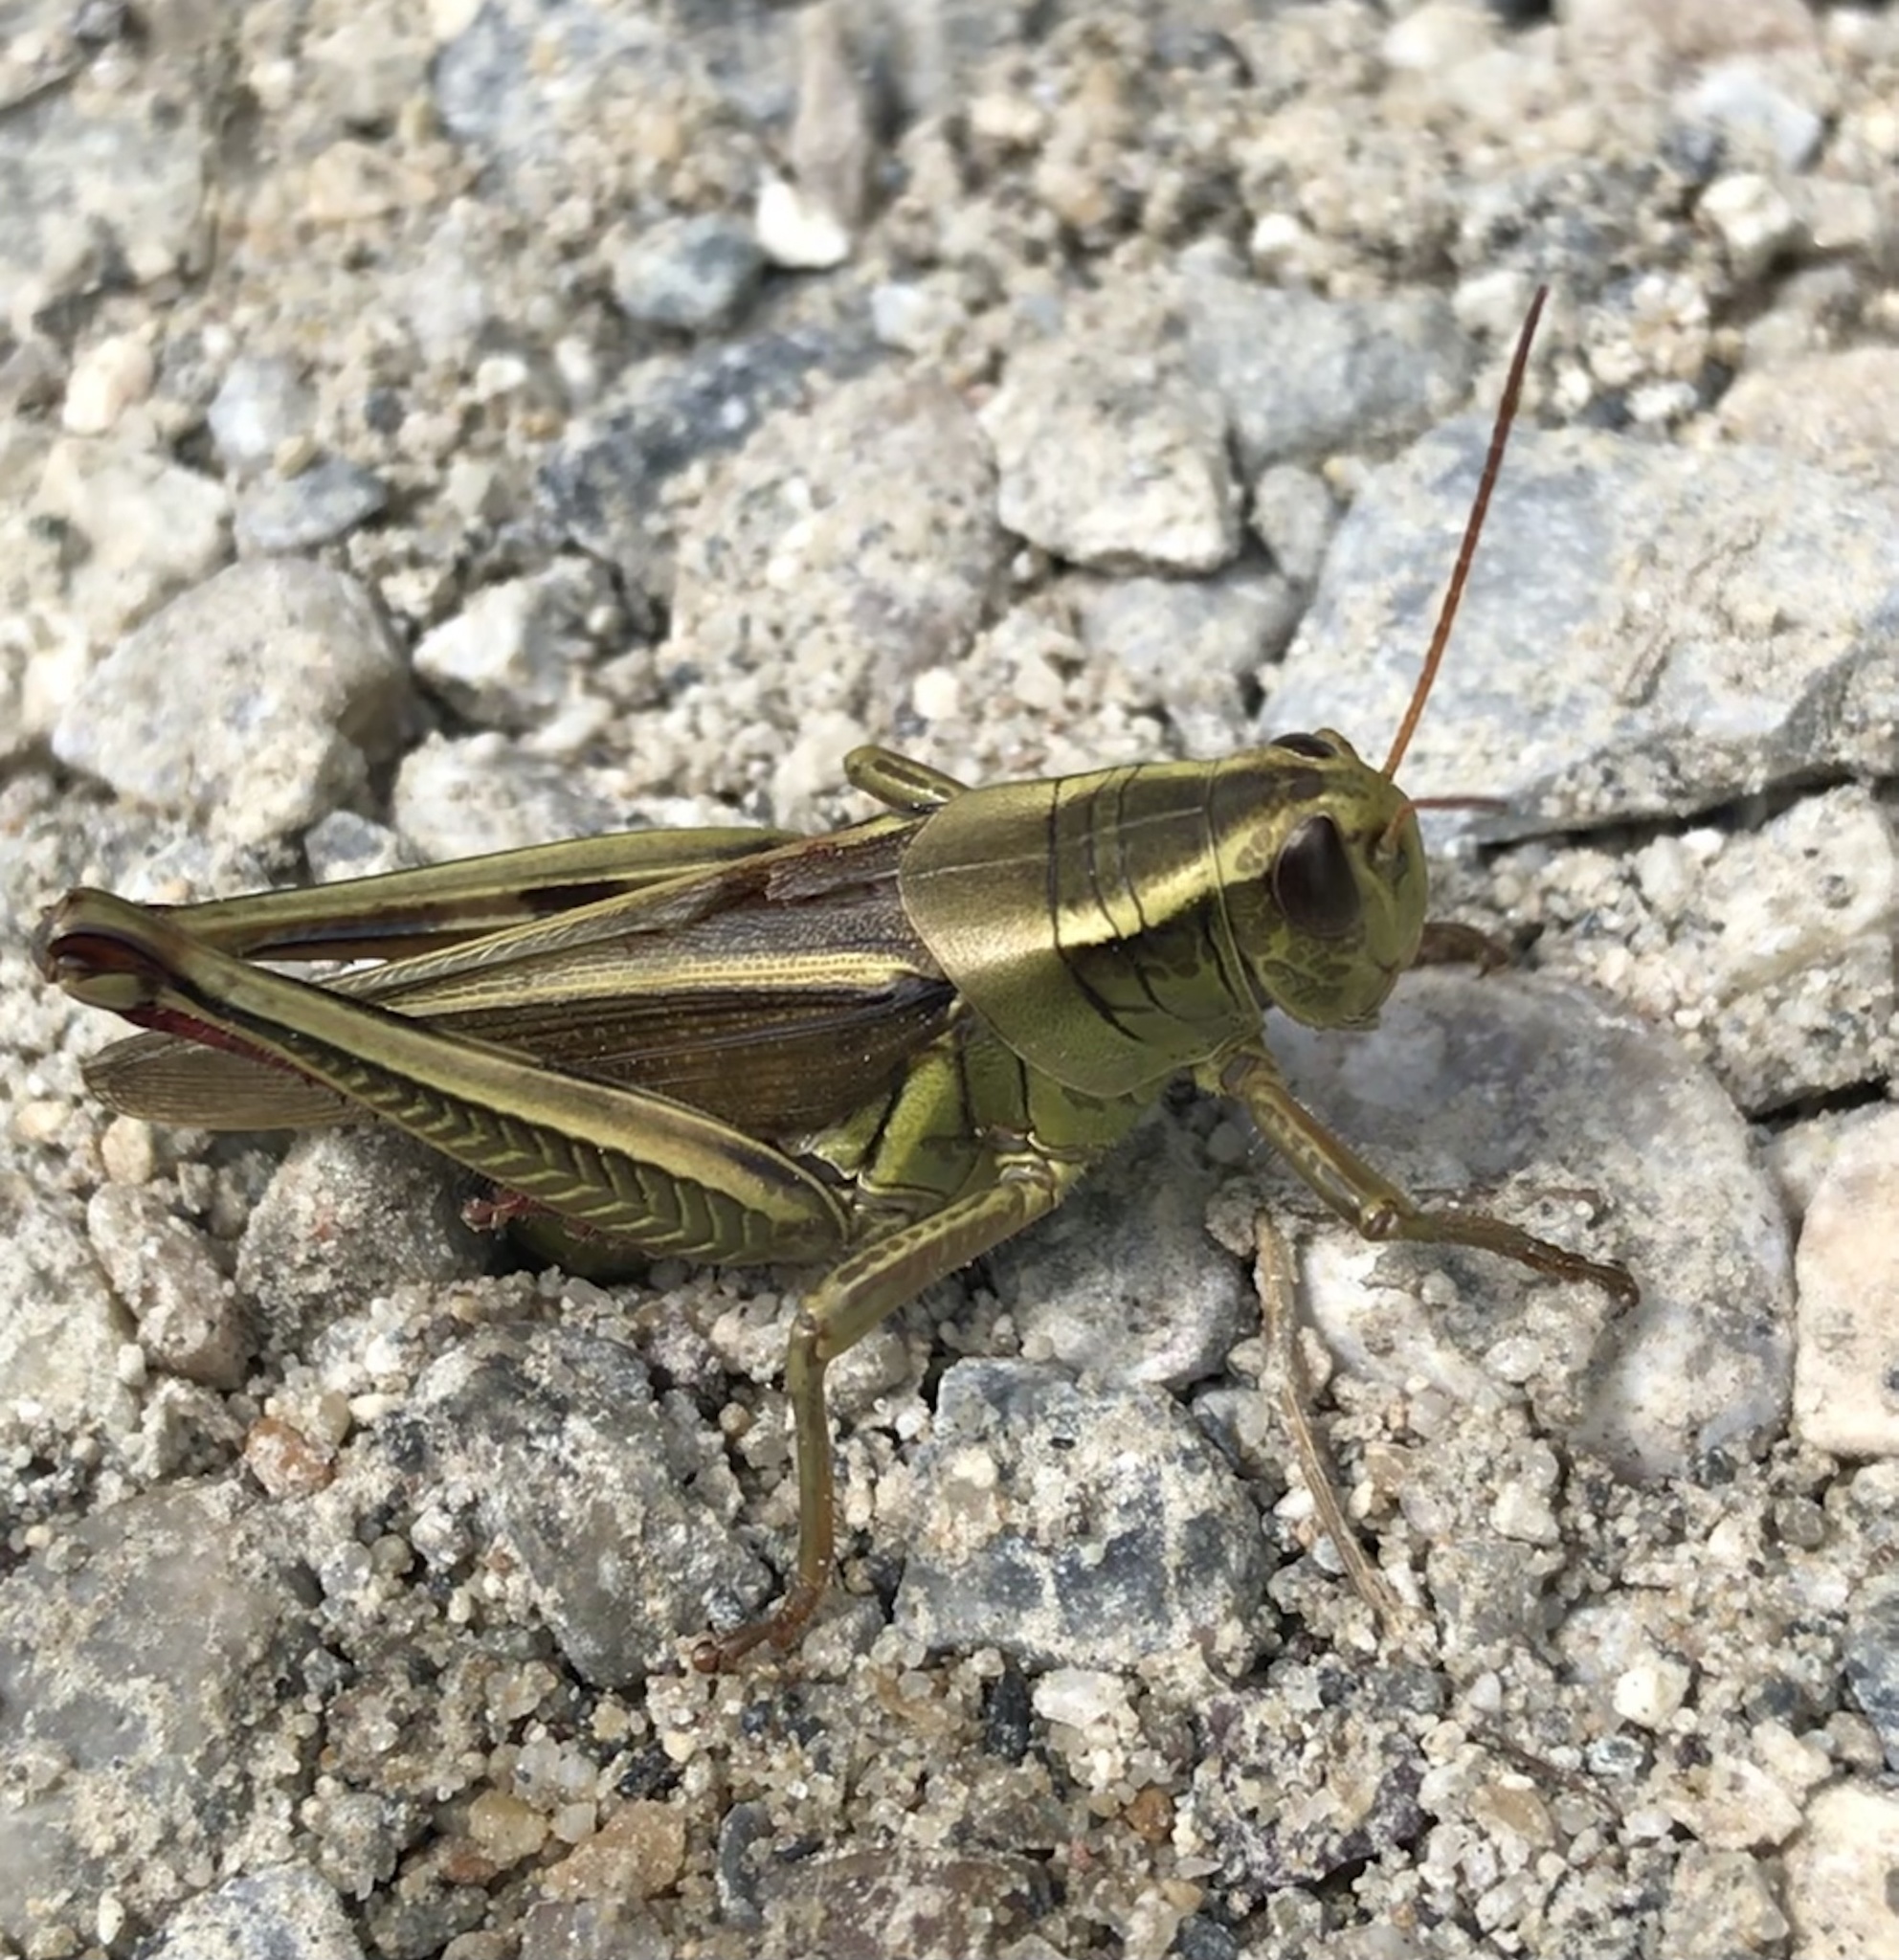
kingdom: Animalia
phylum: Arthropoda
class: Insecta
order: Orthoptera
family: Acrididae
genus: Melanoplus
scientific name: Melanoplus bivittatus
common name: Two-striped grasshopper
